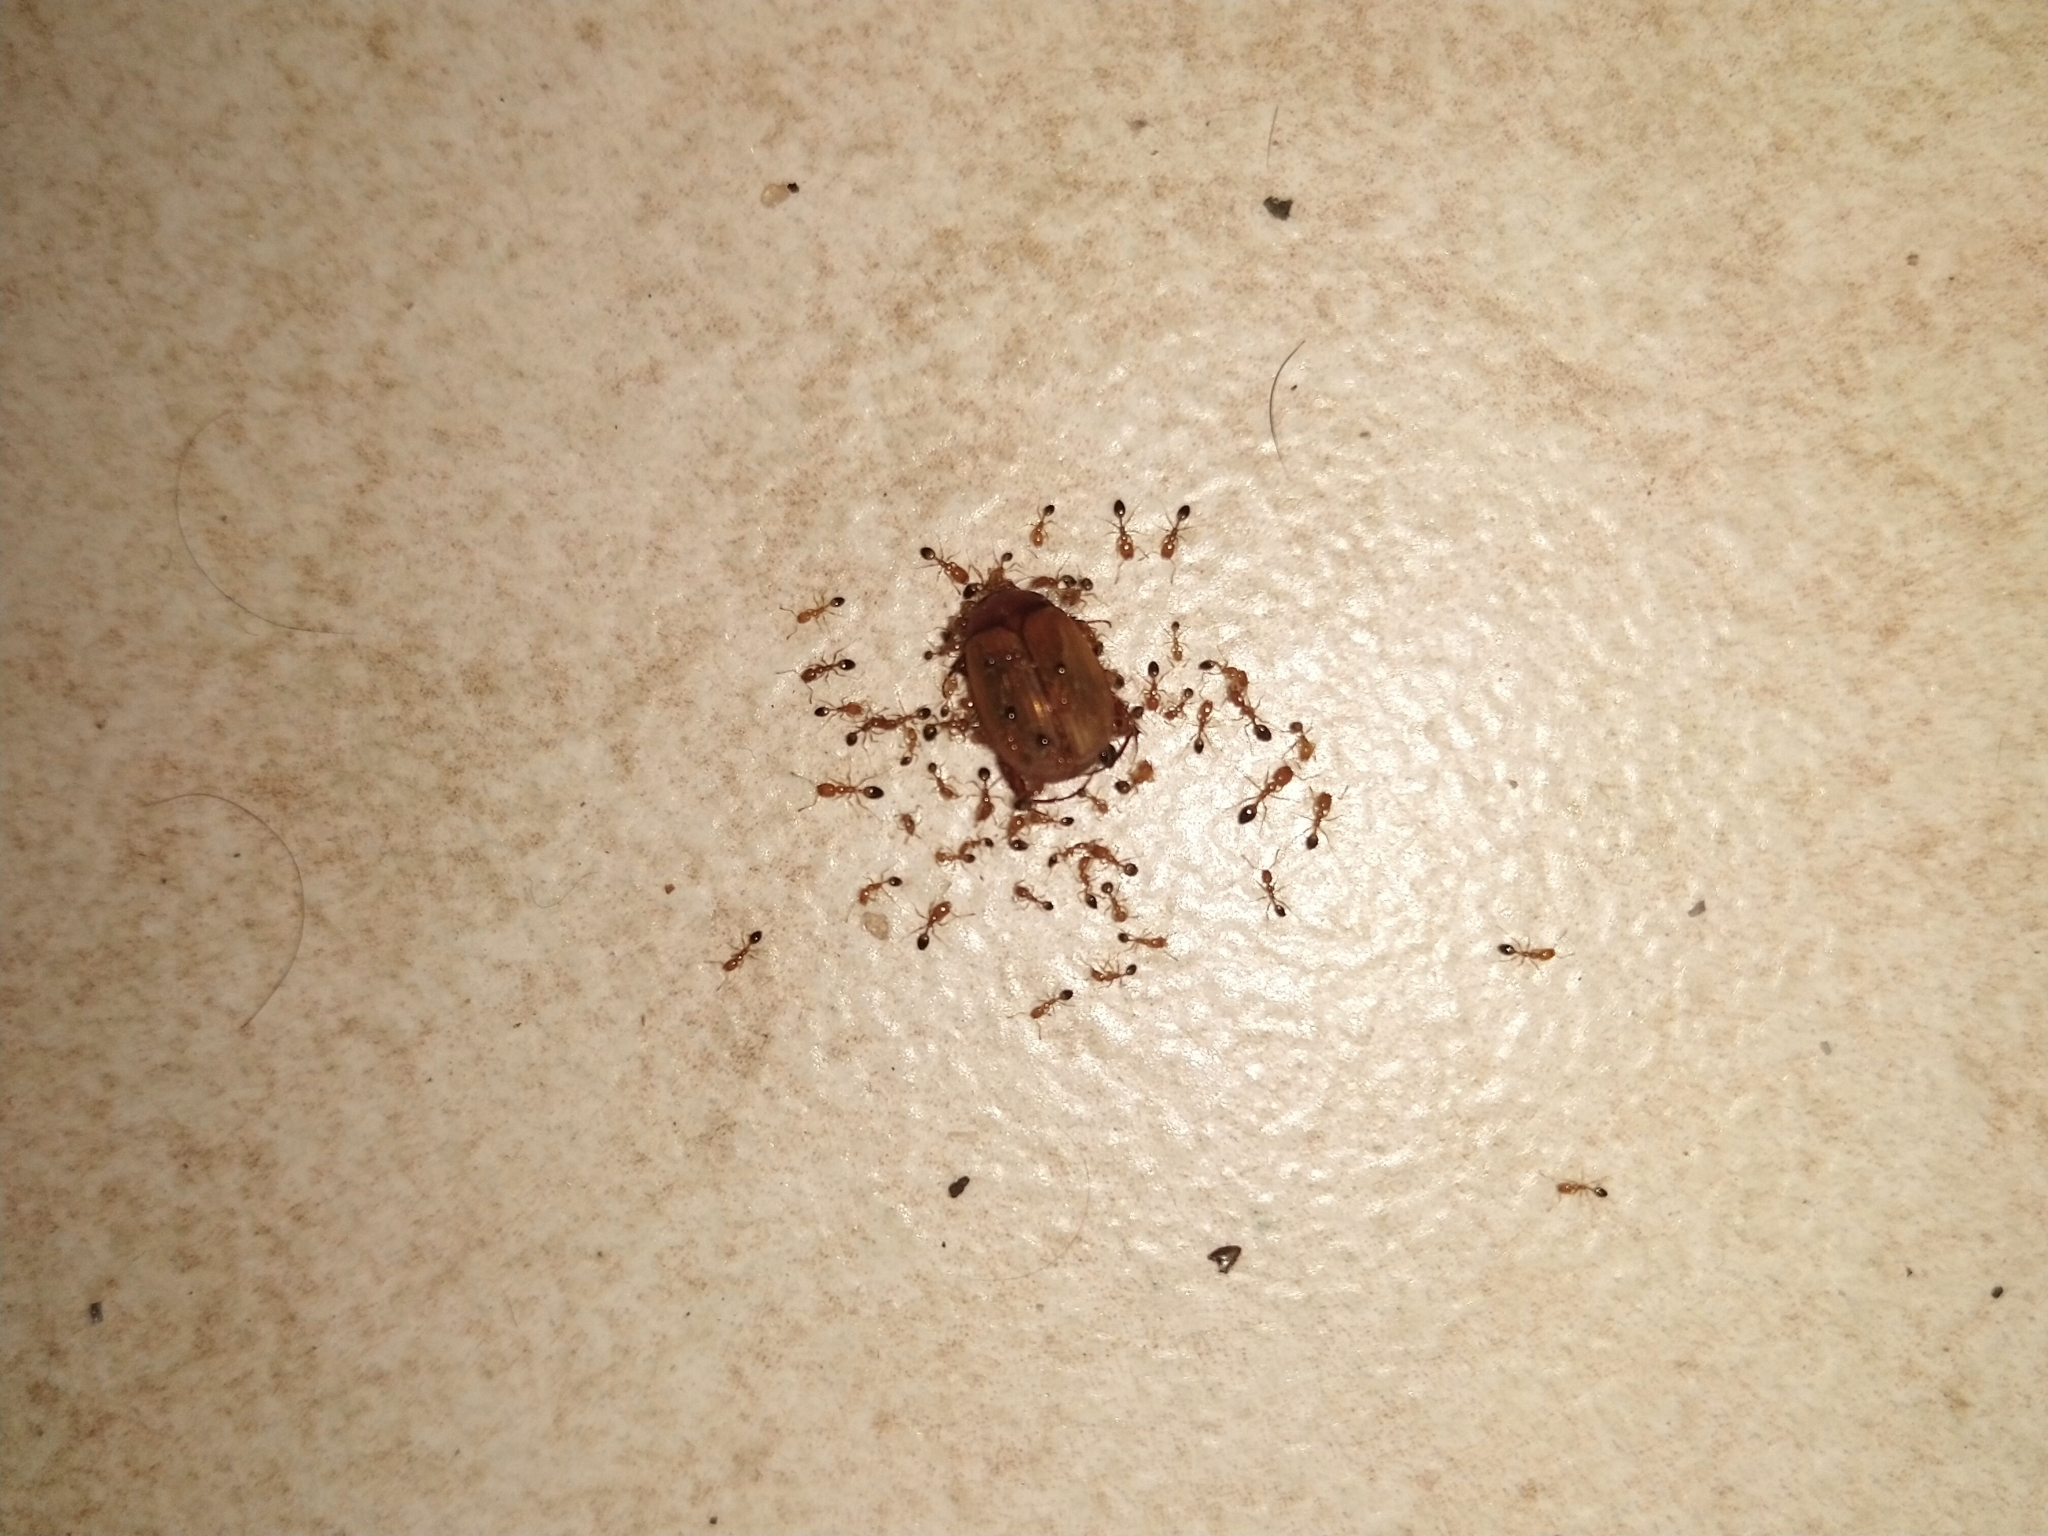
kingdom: Animalia
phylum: Arthropoda
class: Insecta
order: Hymenoptera
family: Formicidae
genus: Monomorium
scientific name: Monomorium destructor
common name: Destructive trailing ant
